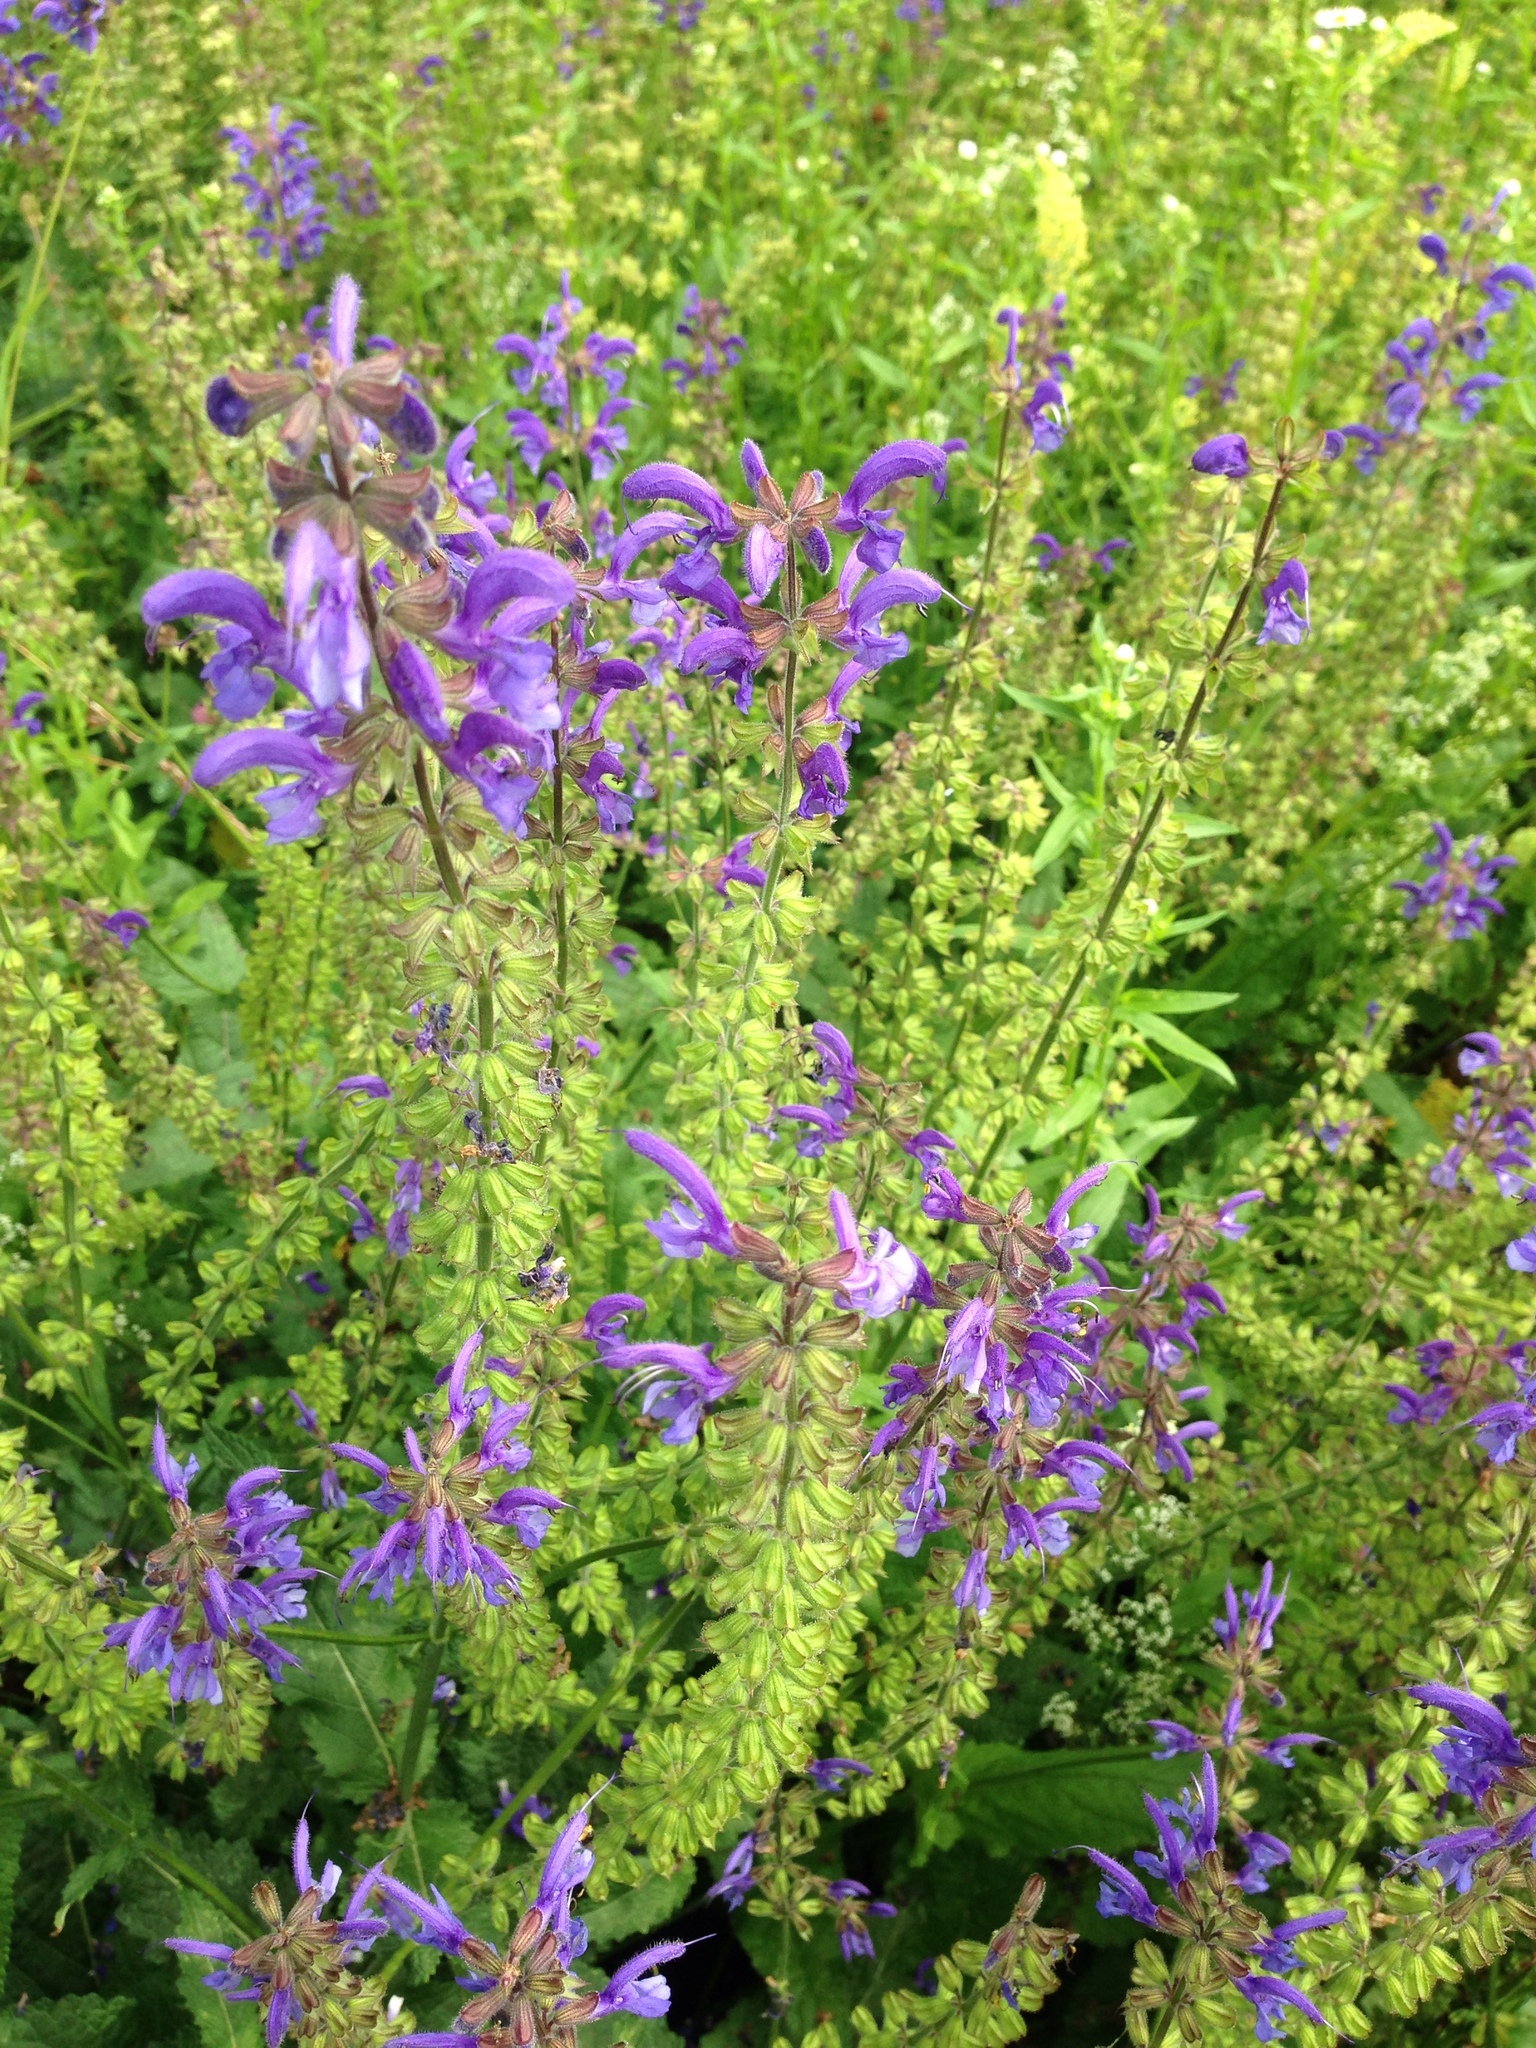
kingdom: Plantae
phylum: Tracheophyta
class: Magnoliopsida
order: Lamiales
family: Lamiaceae
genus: Salvia
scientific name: Salvia pratensis
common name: Meadow sage
